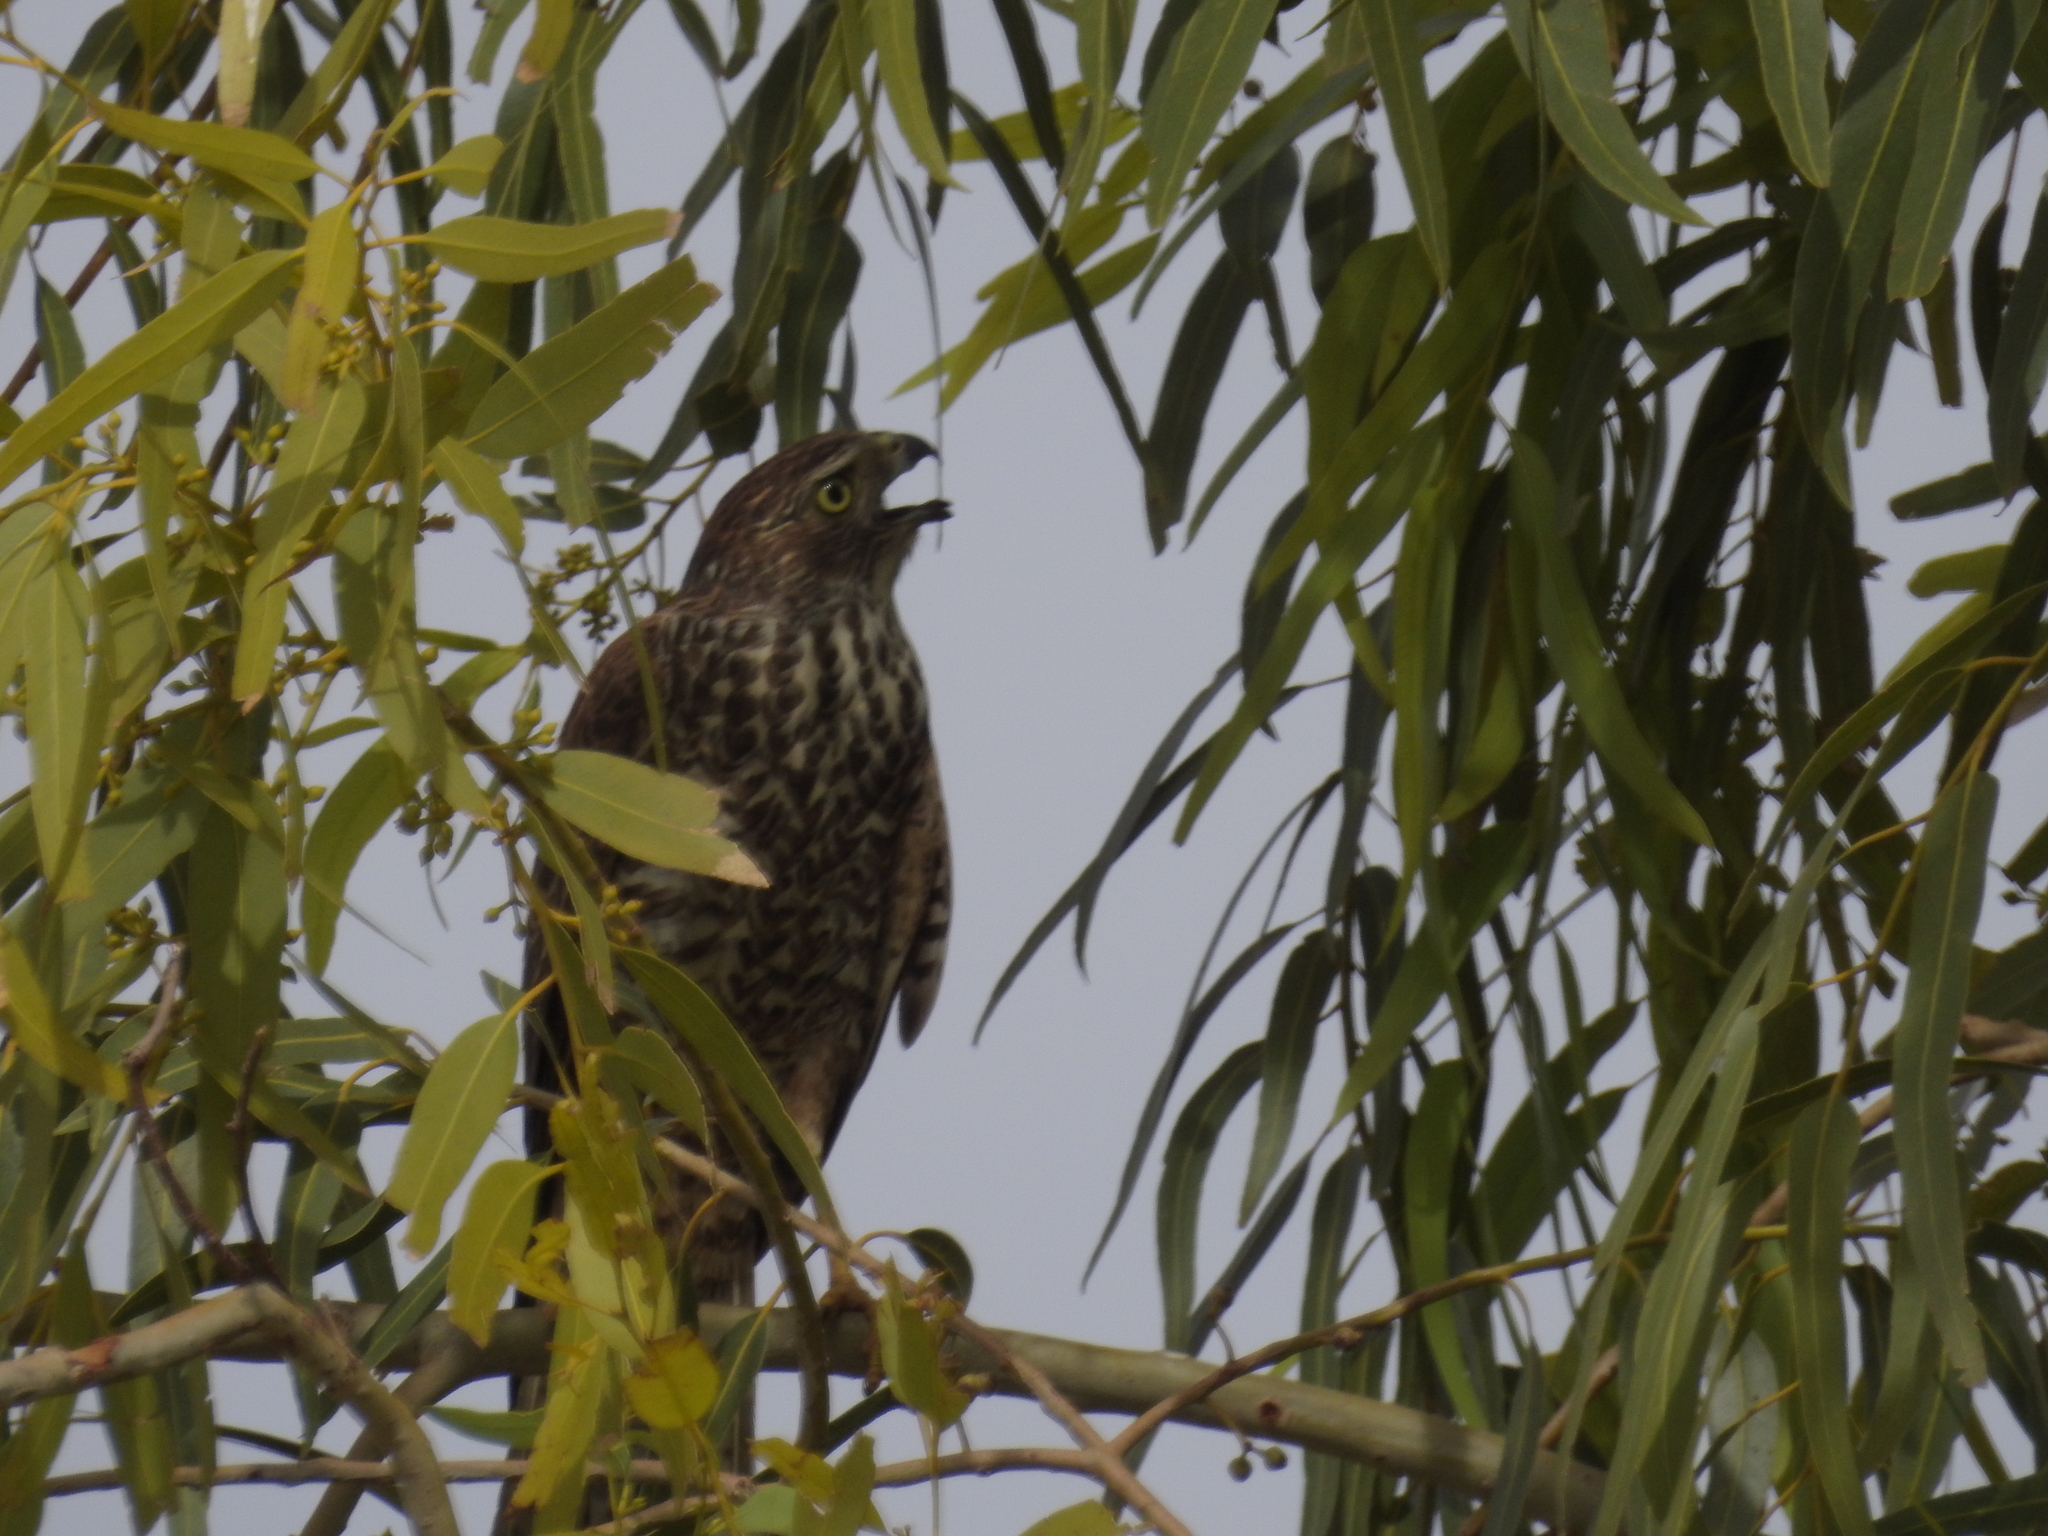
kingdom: Animalia
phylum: Chordata
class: Aves
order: Accipitriformes
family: Accipitridae
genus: Accipiter
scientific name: Accipiter fasciatus
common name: Brown goshawk
